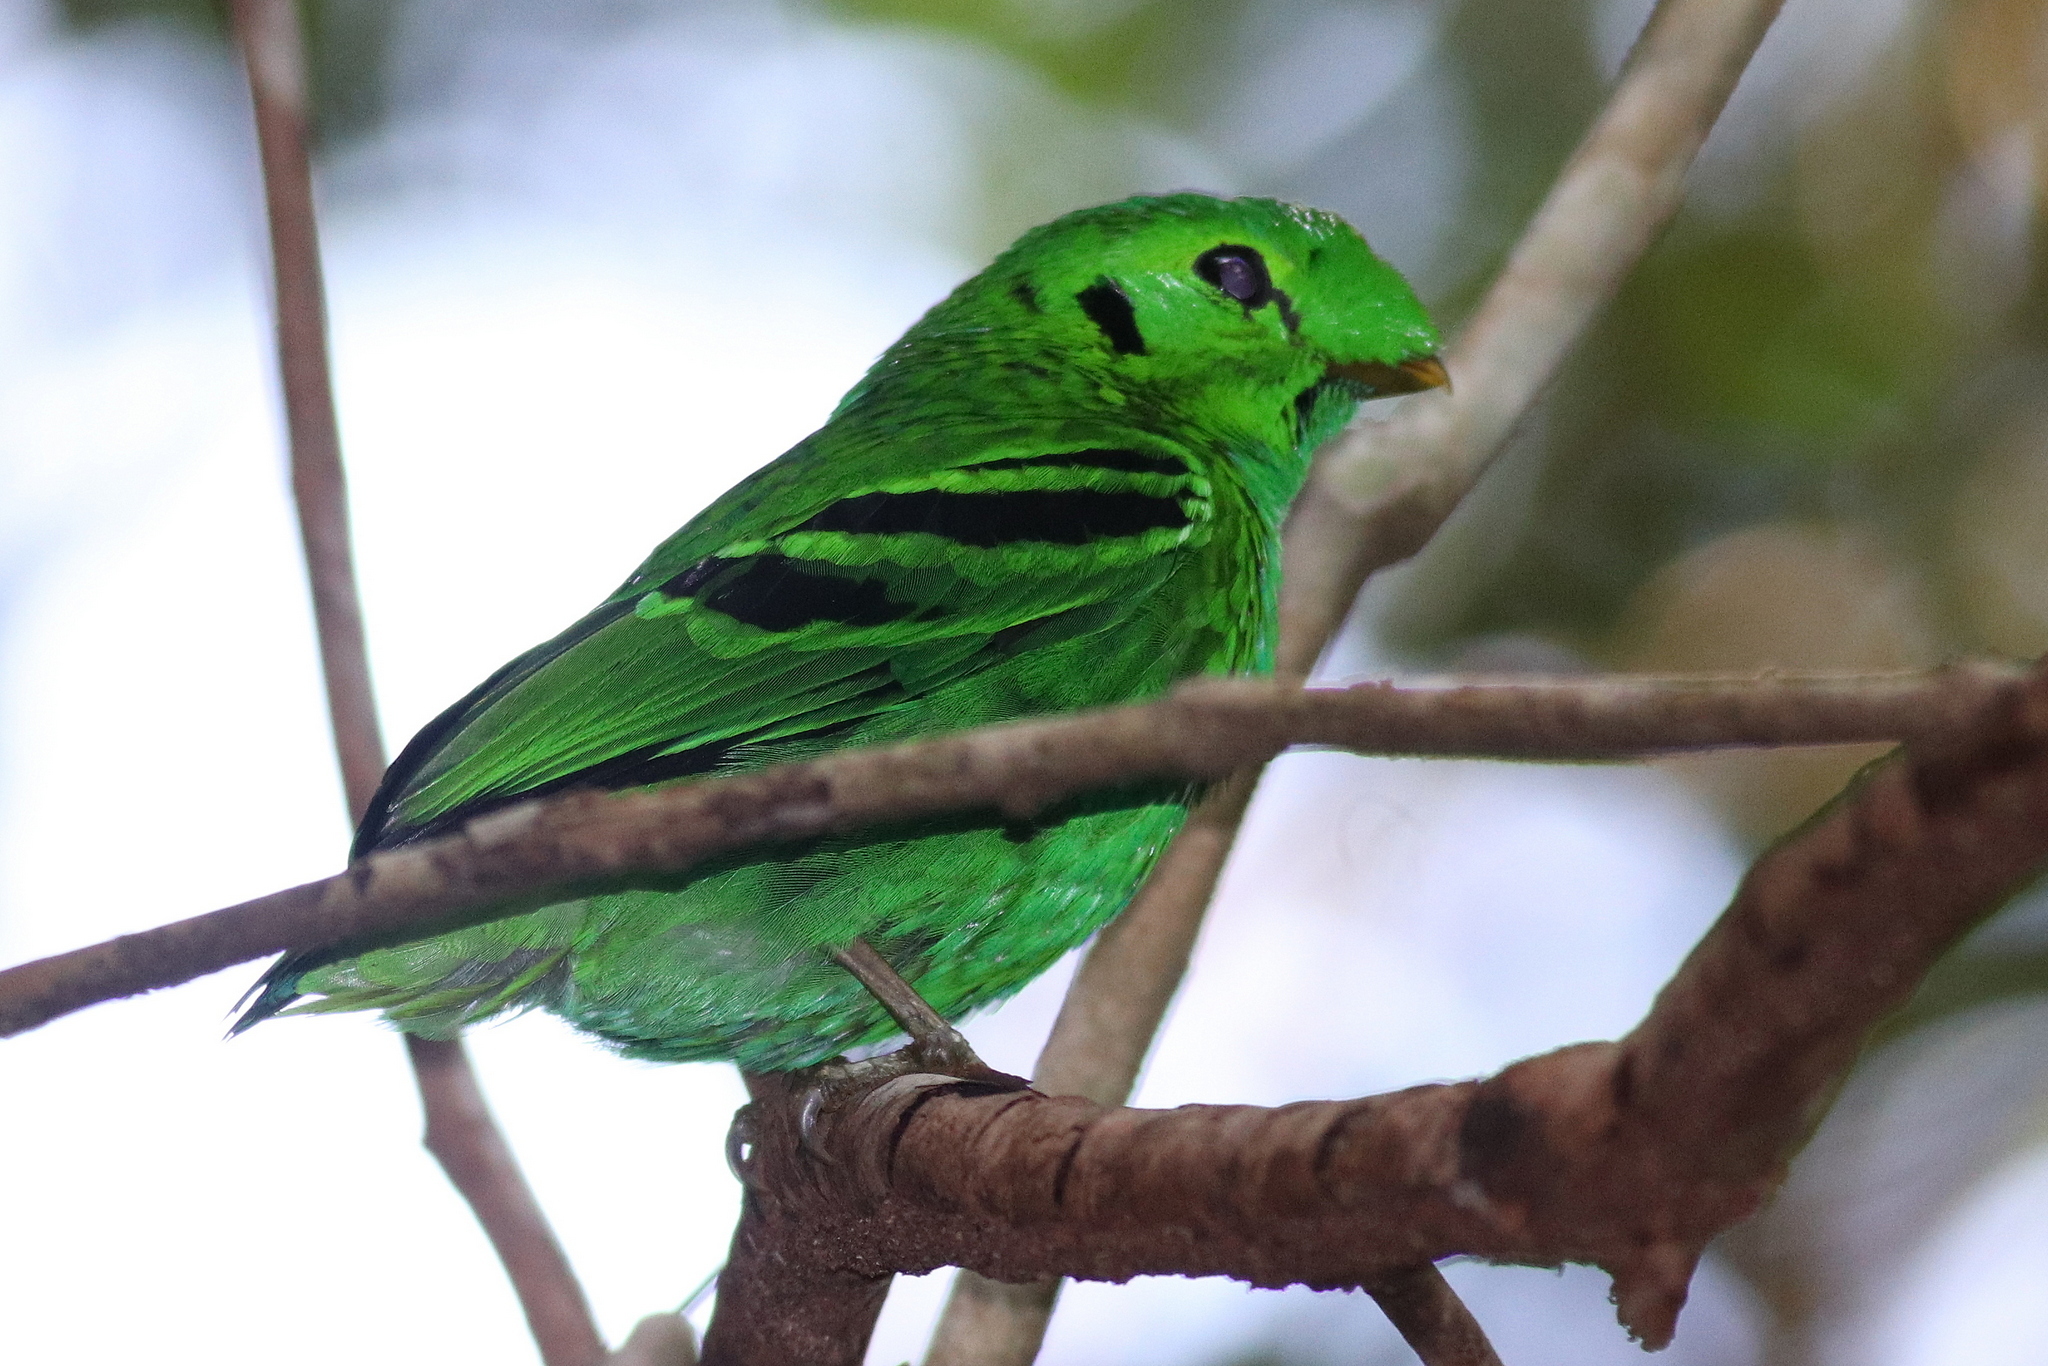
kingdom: Animalia
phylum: Chordata
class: Aves
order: Passeriformes
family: Eurylaimidae
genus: Calyptomena
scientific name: Calyptomena viridis
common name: Green broadbill
